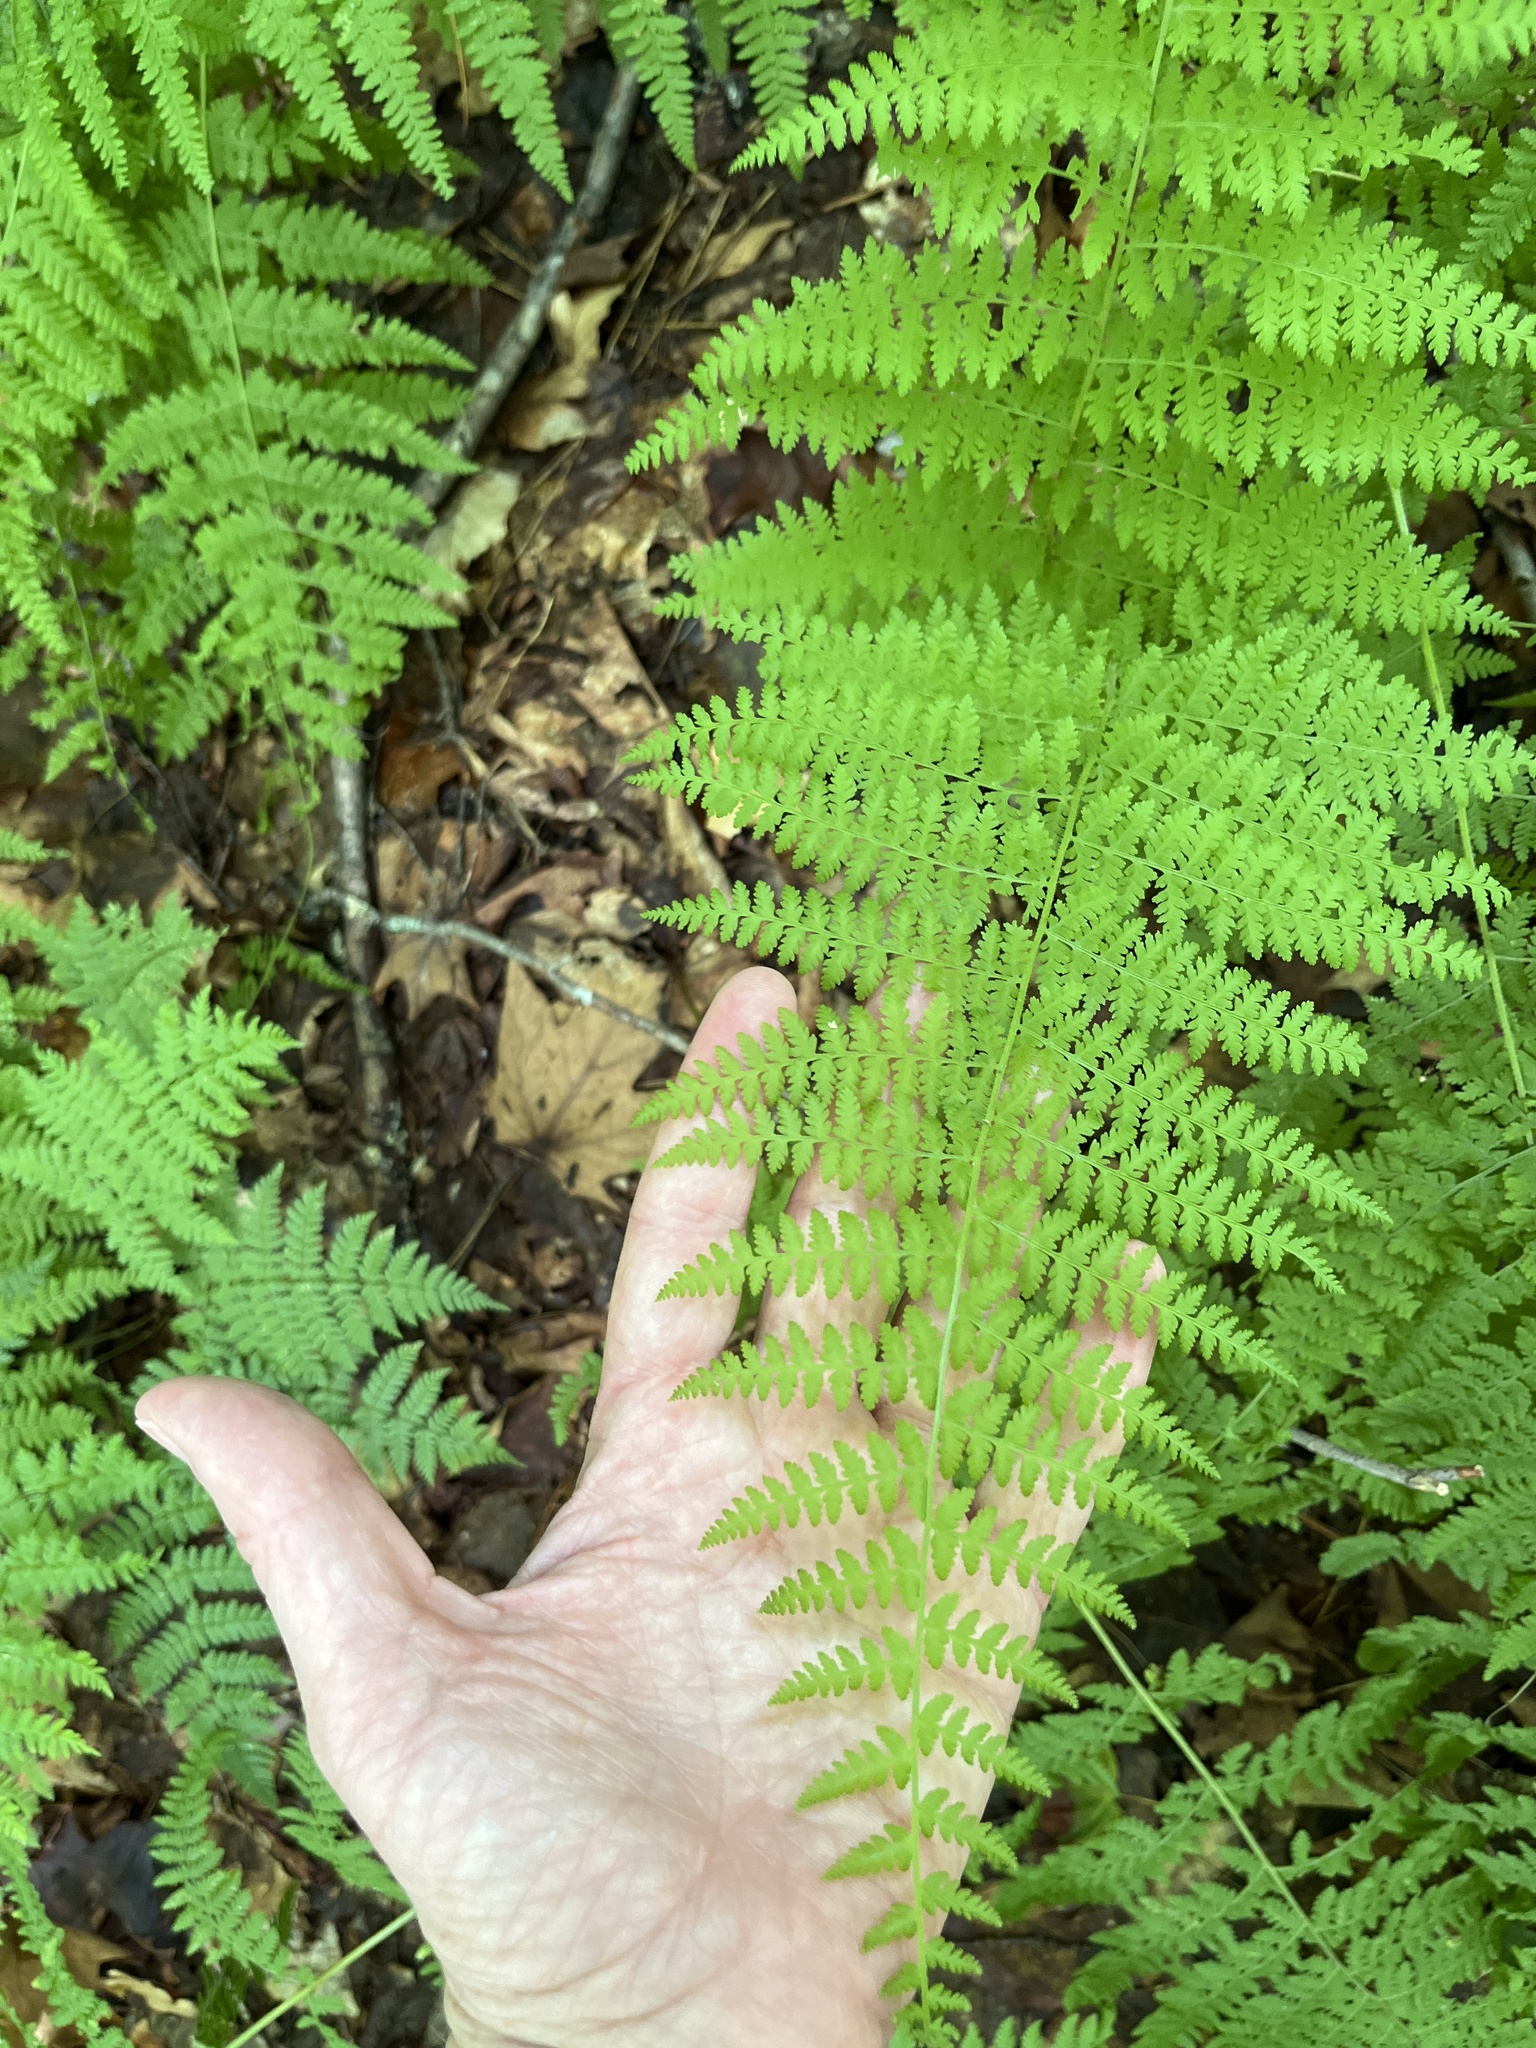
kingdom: Plantae
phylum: Tracheophyta
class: Polypodiopsida
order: Polypodiales
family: Dennstaedtiaceae
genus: Sitobolium
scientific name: Sitobolium punctilobum
